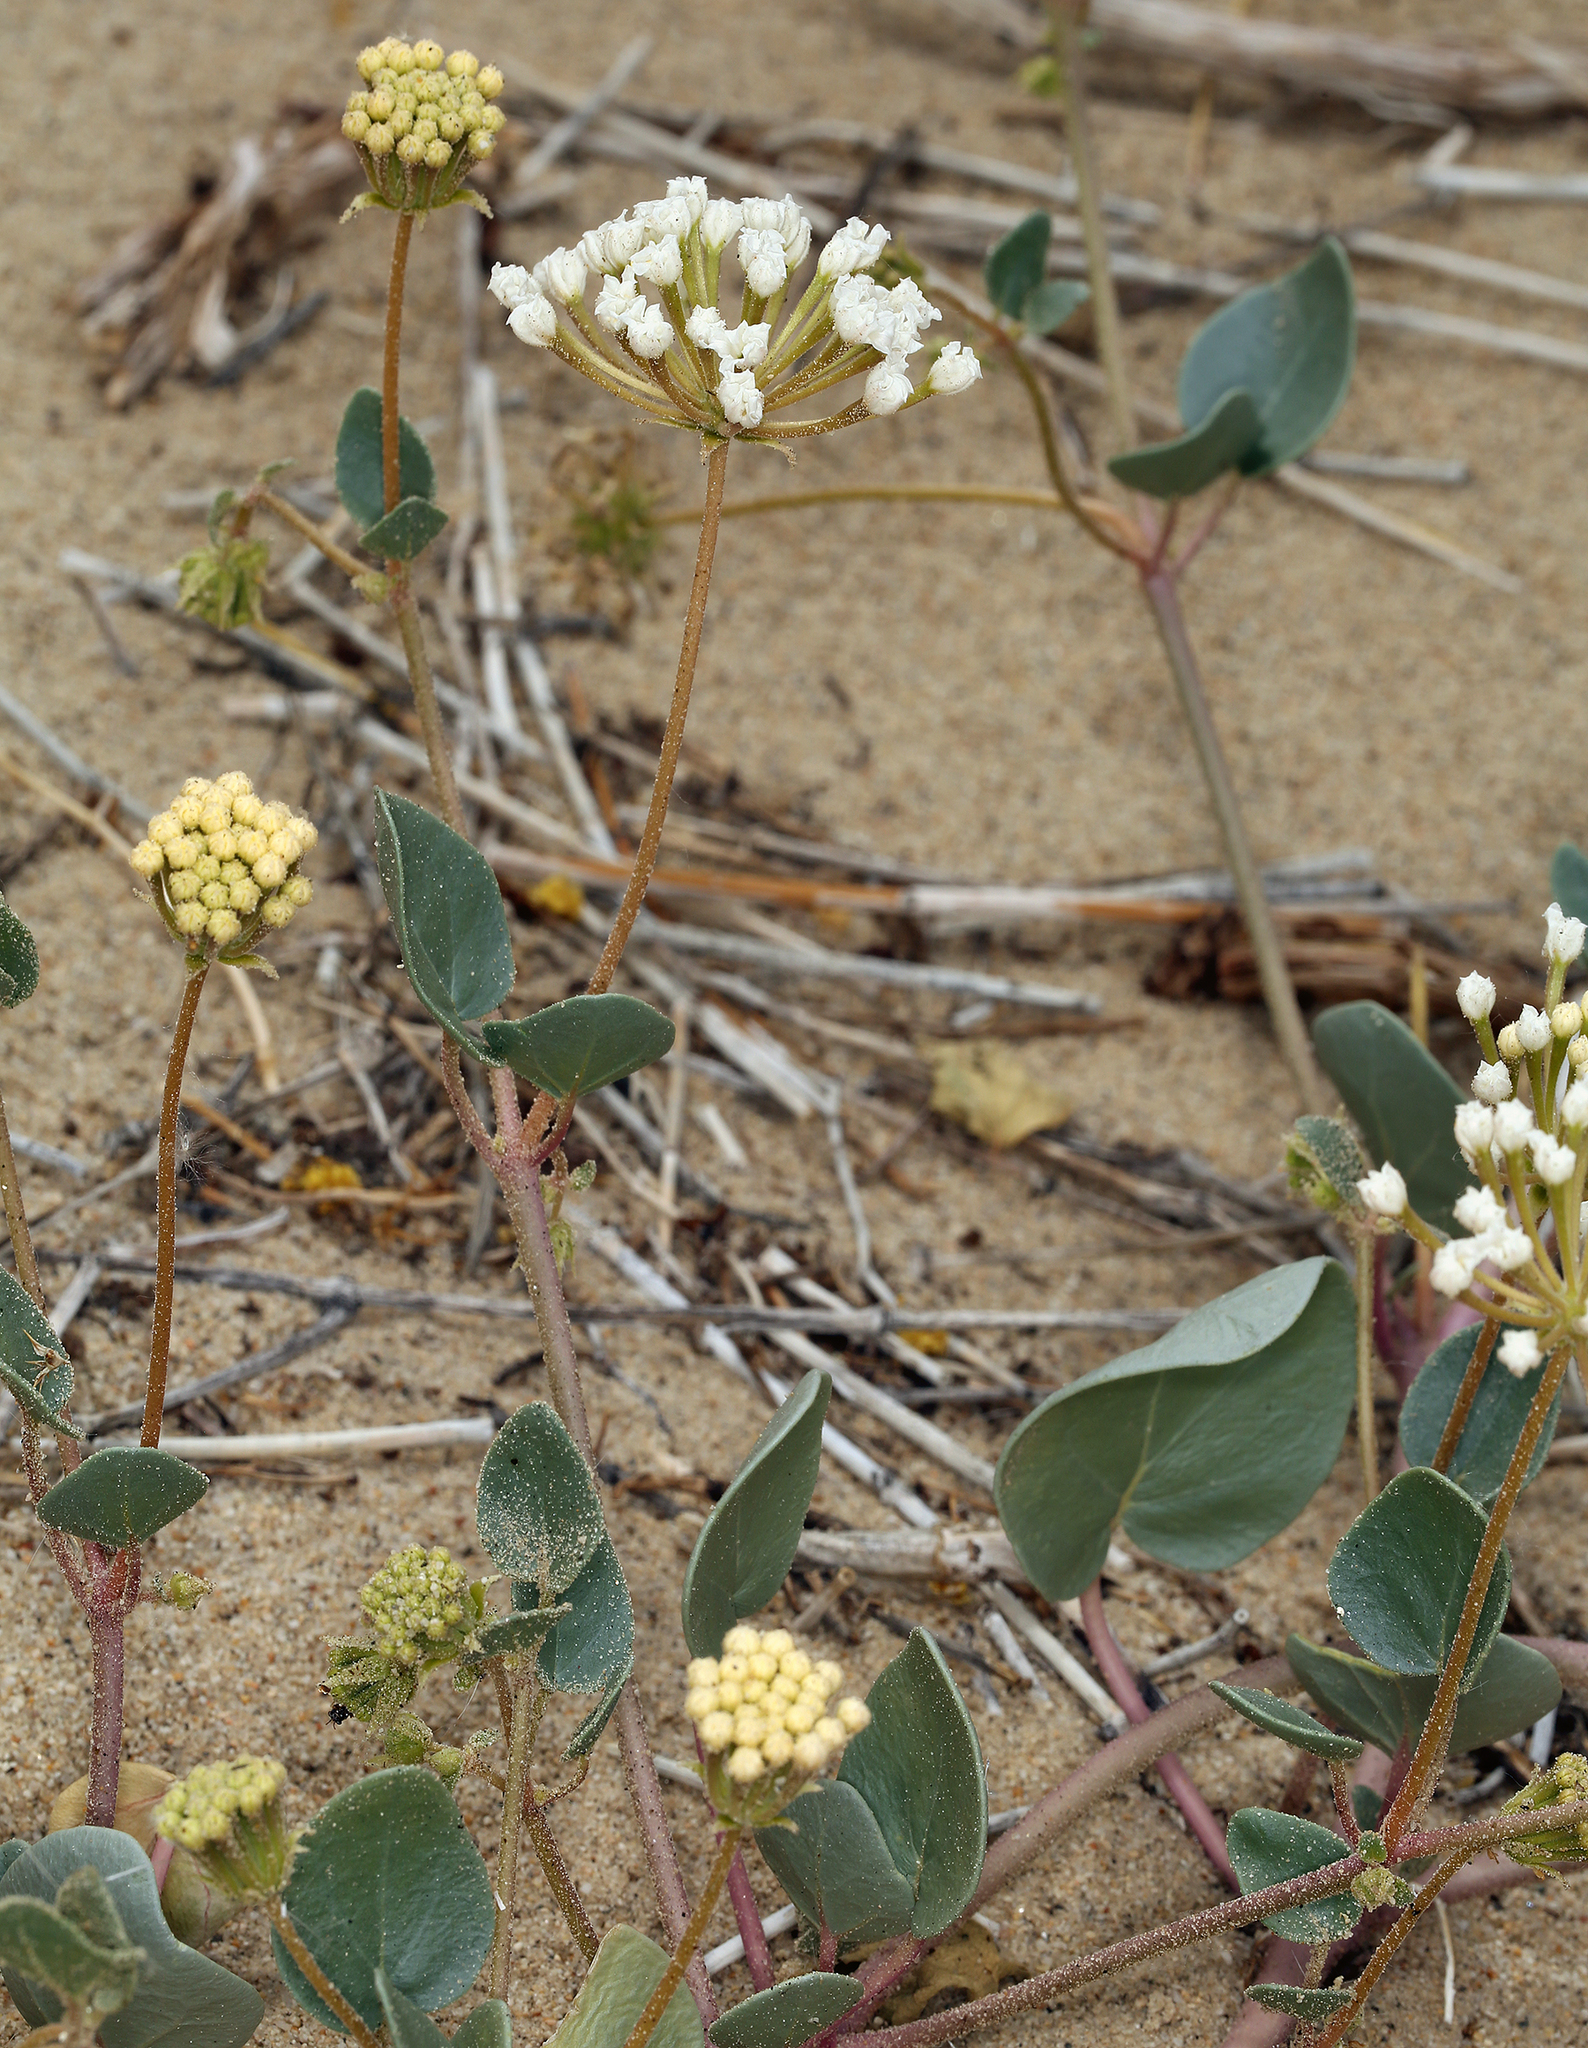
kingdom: Plantae
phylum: Tracheophyta
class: Magnoliopsida
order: Caryophyllales
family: Nyctaginaceae
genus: Abronia
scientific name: Abronia turbinata
